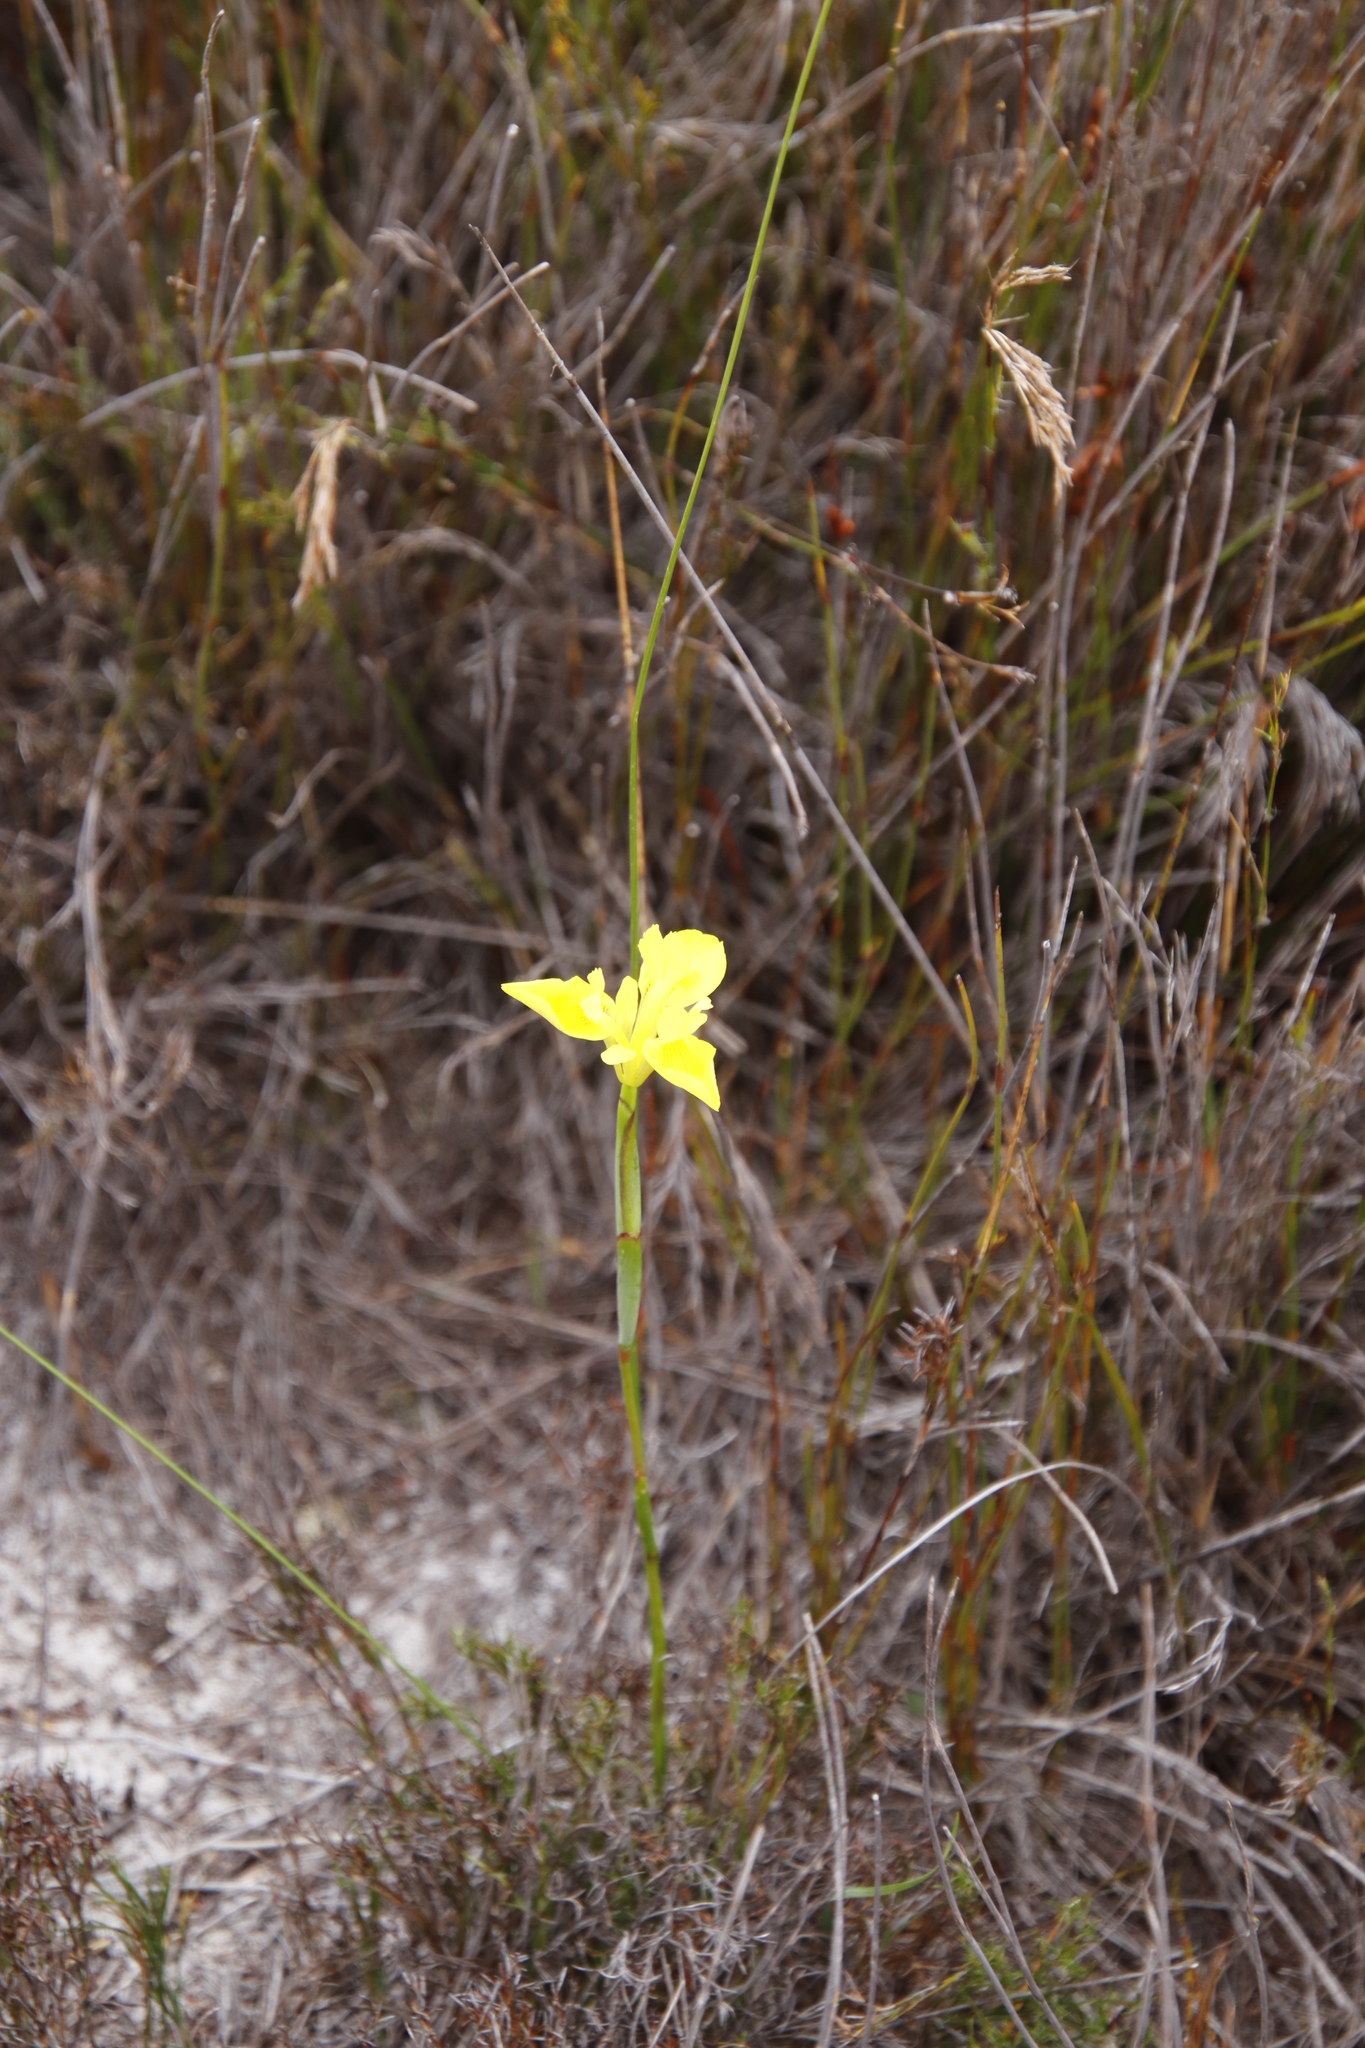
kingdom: Plantae
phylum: Tracheophyta
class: Liliopsida
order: Asparagales
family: Iridaceae
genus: Moraea
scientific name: Moraea neglecta
